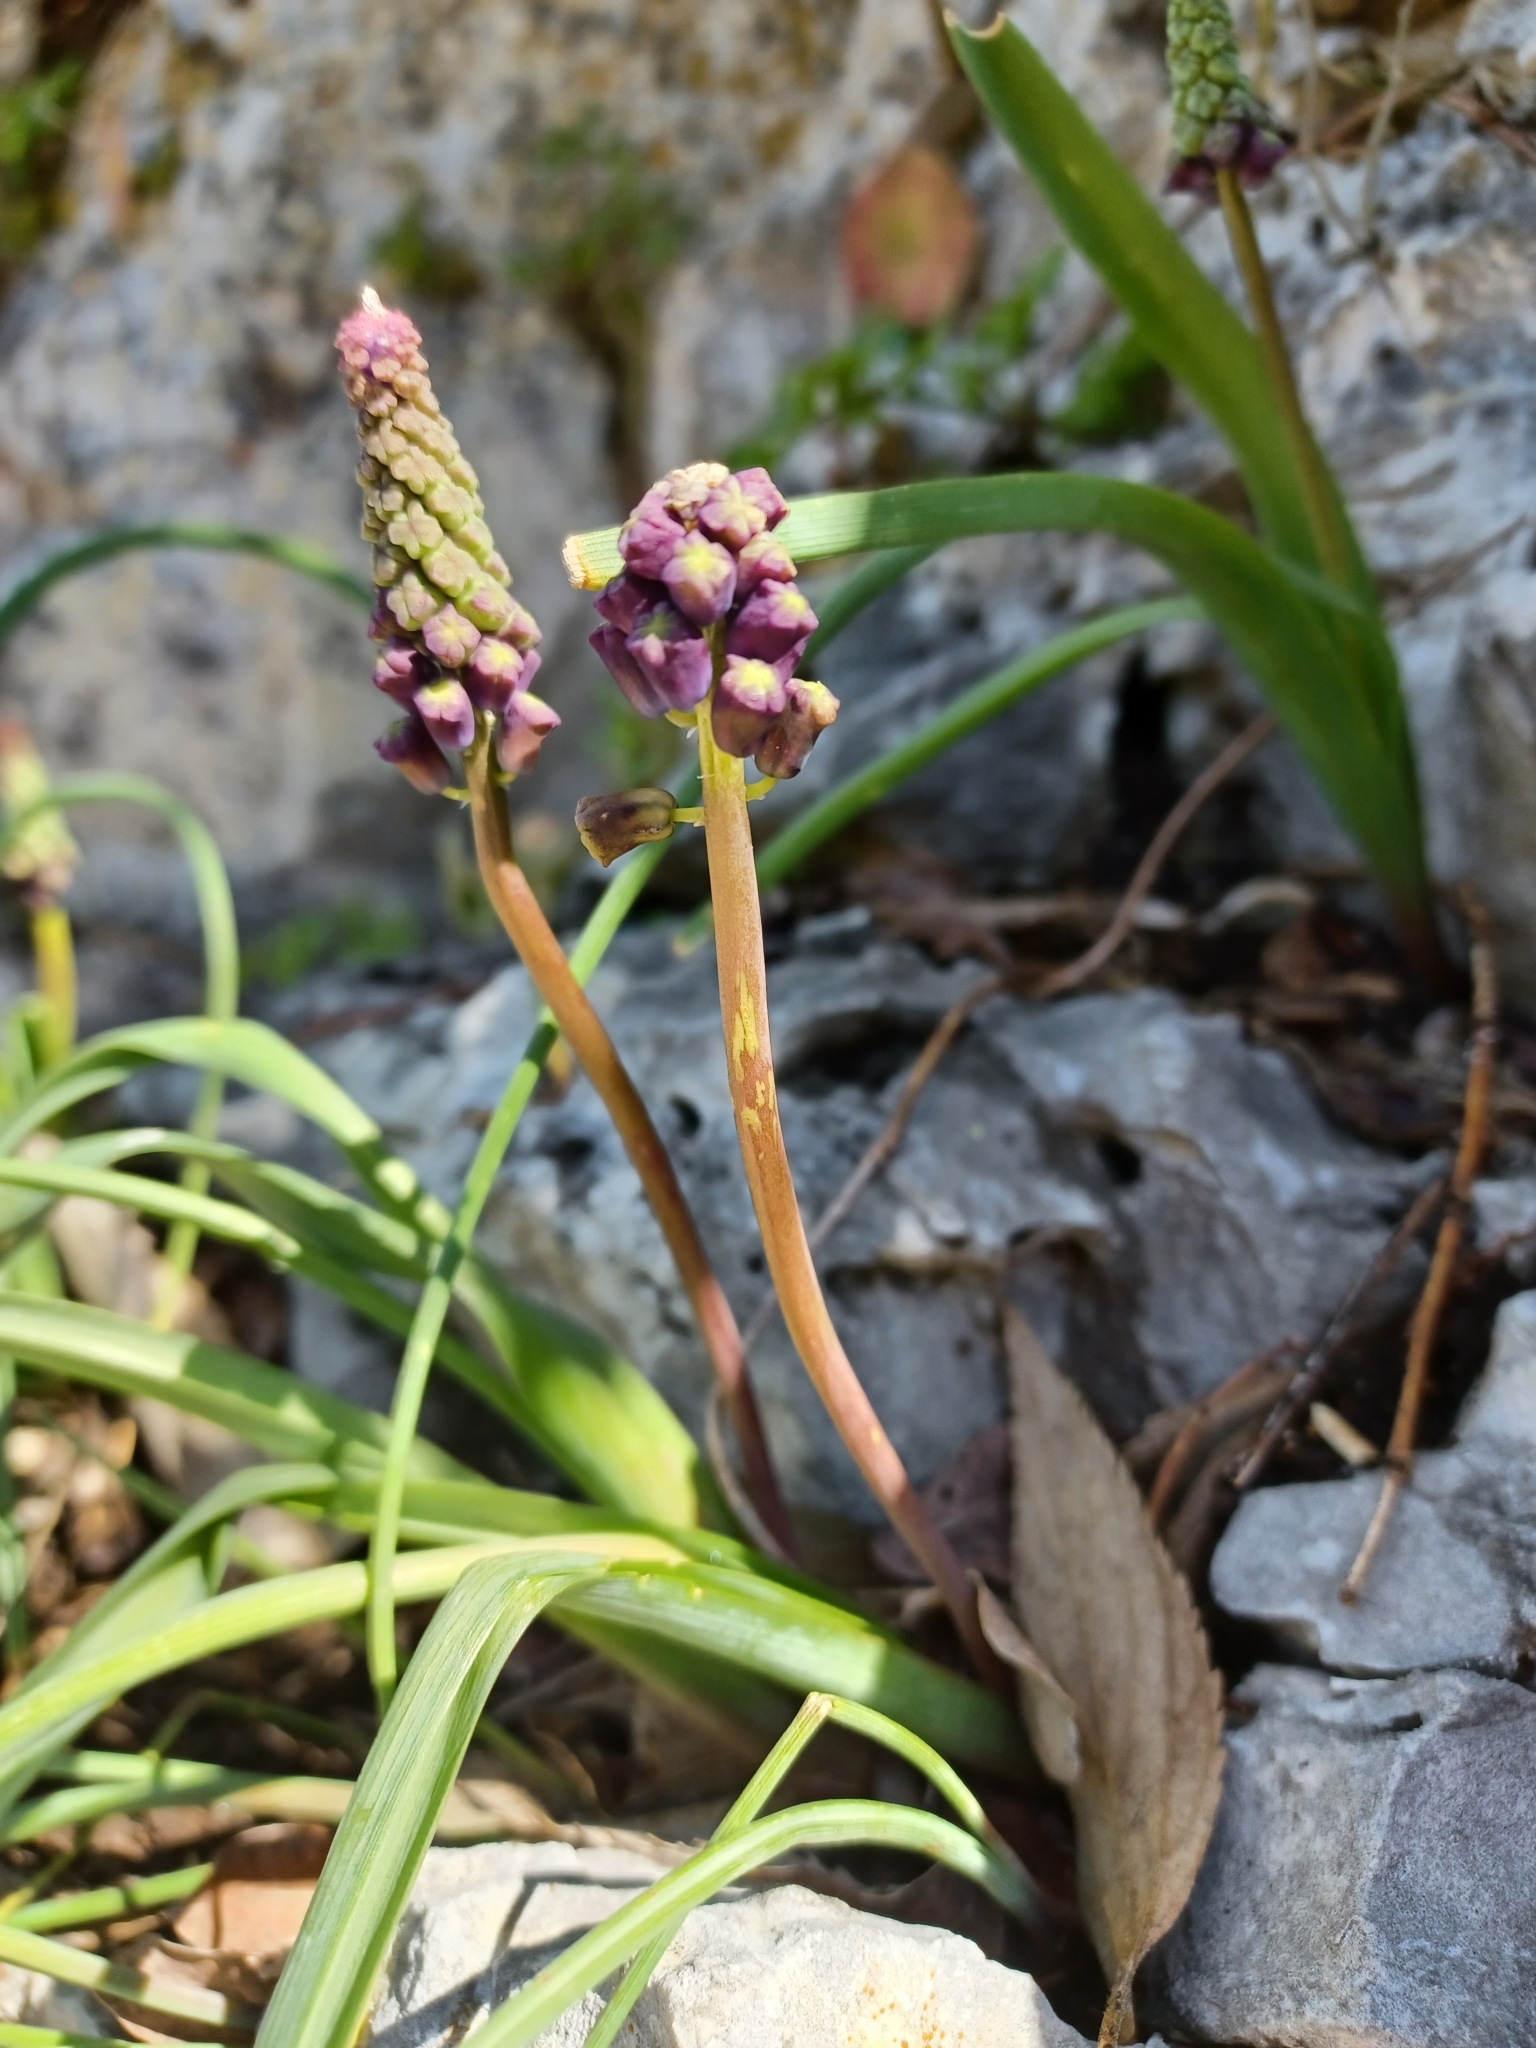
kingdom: Plantae
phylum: Tracheophyta
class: Liliopsida
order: Asparagales
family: Asparagaceae
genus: Muscari
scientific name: Muscari comosum
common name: Tassel hyacinth
